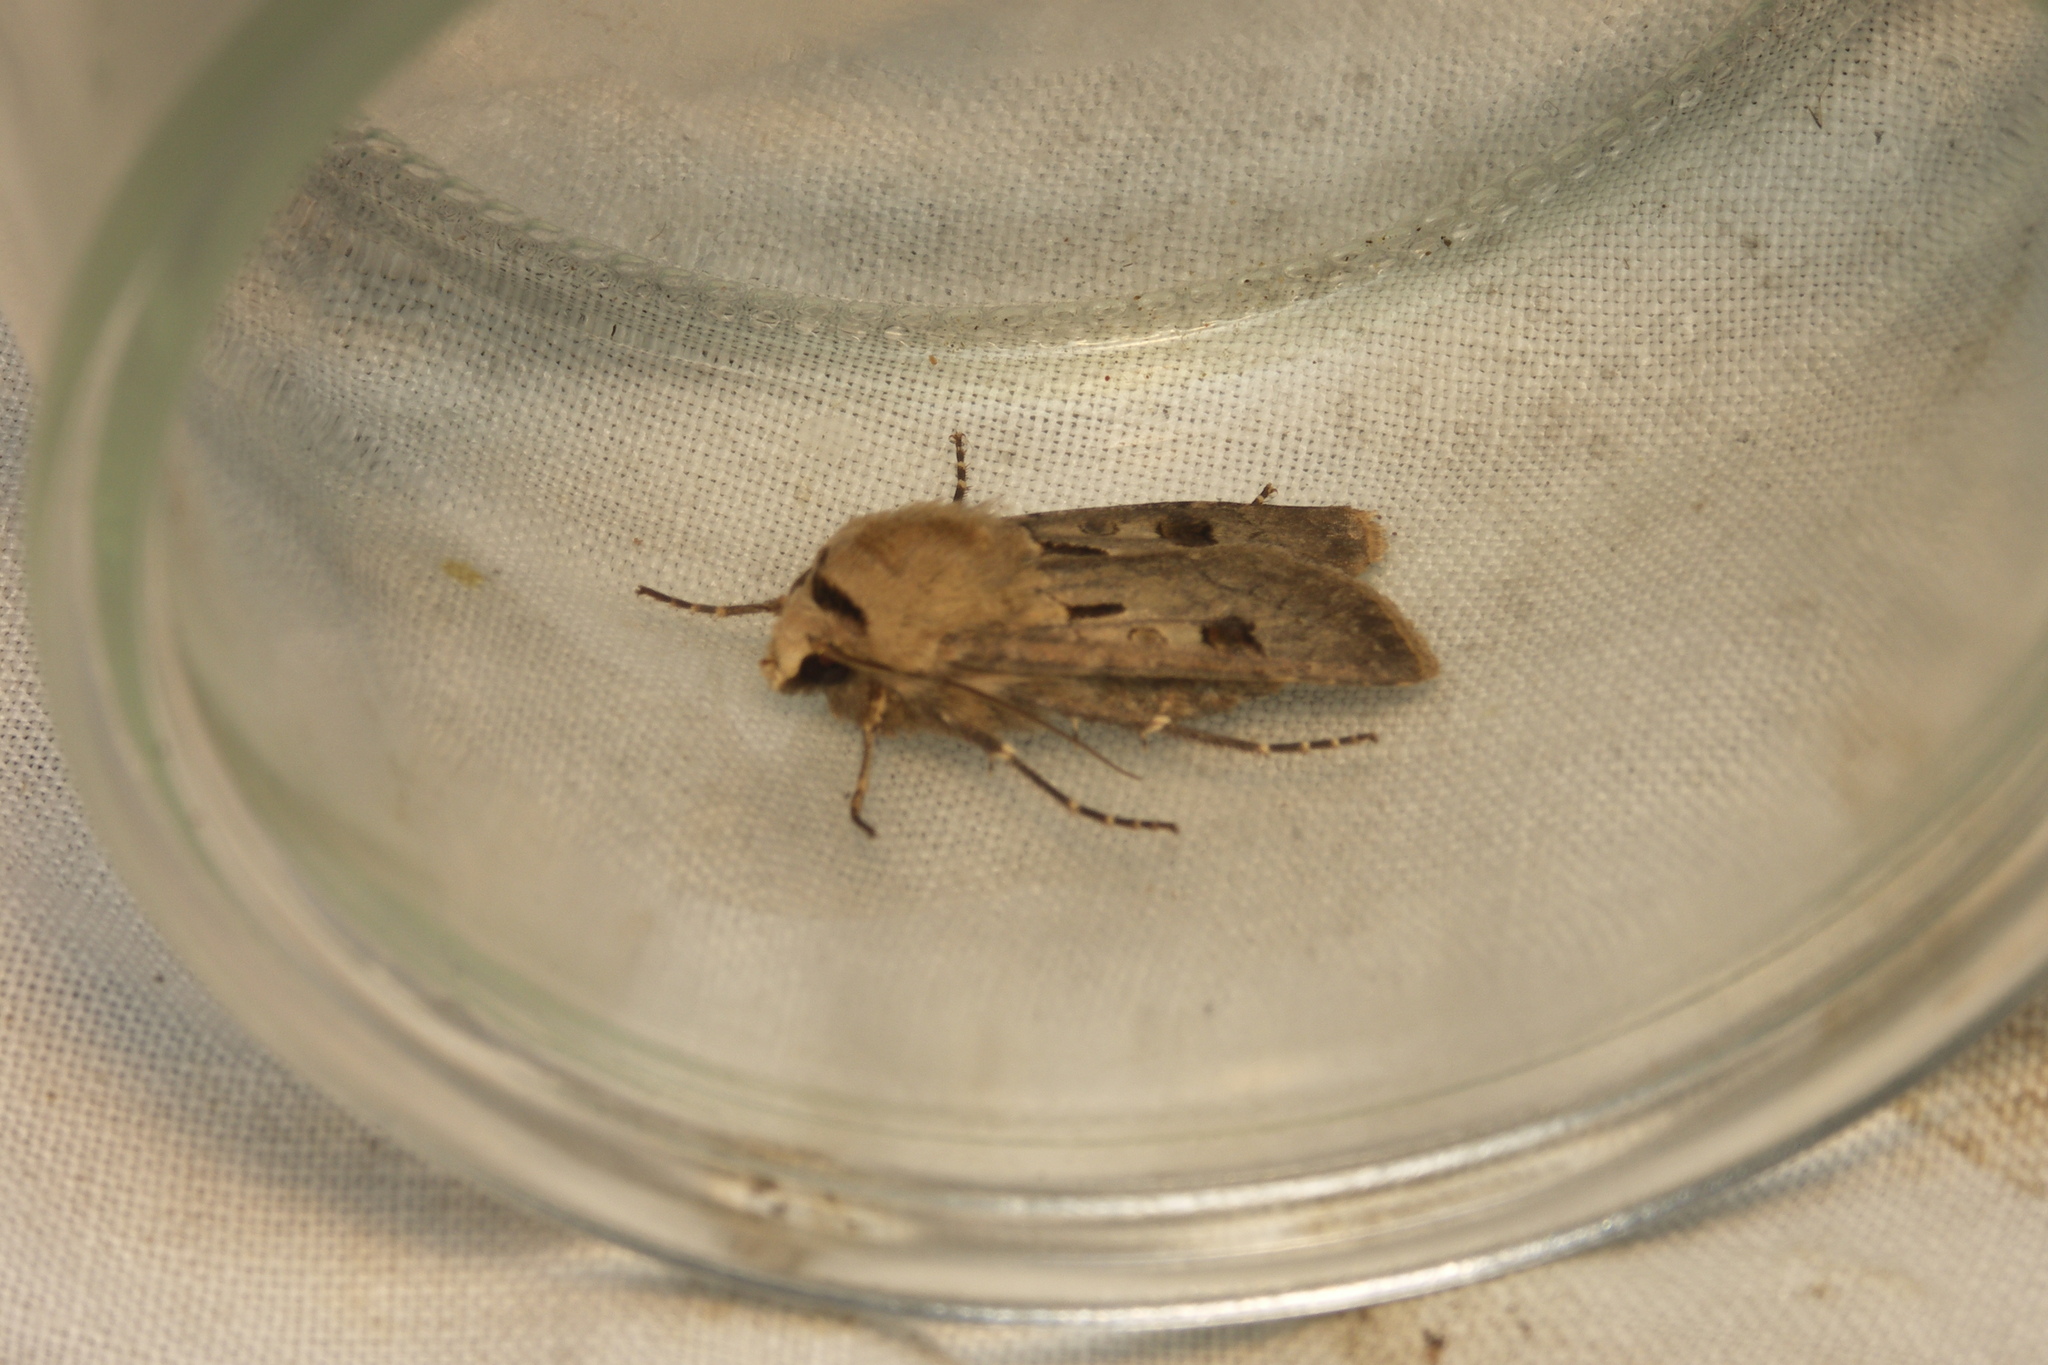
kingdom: Animalia
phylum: Arthropoda
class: Insecta
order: Lepidoptera
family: Noctuidae
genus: Agrotis
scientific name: Agrotis exclamationis
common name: Heart and dart
